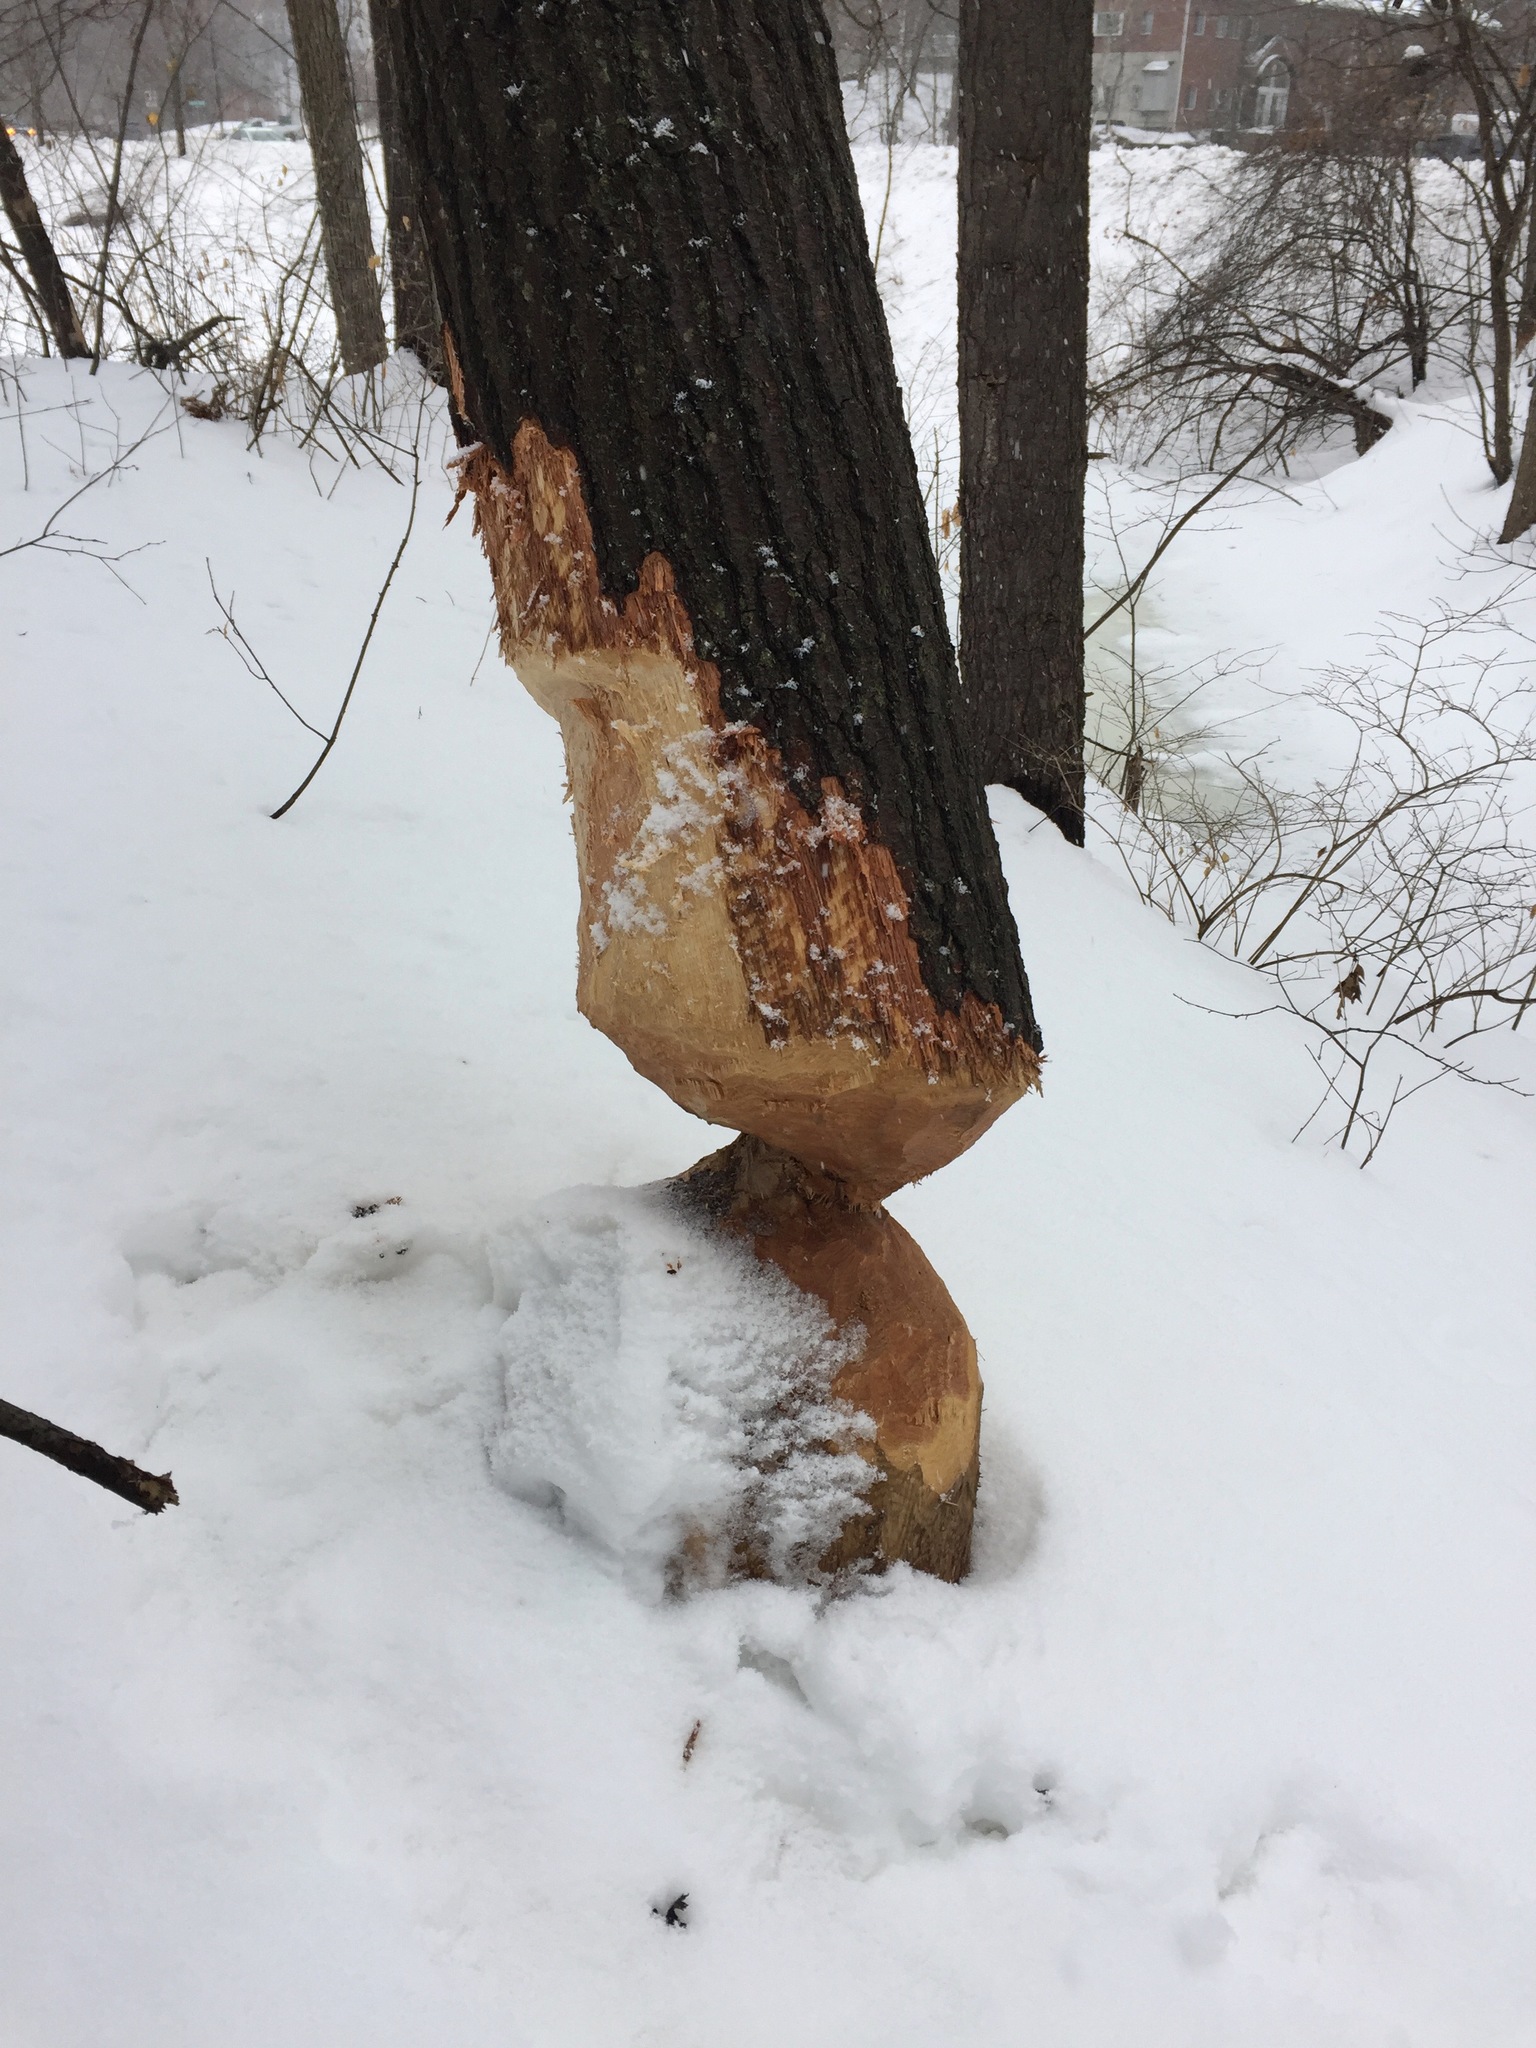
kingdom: Animalia
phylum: Chordata
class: Mammalia
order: Rodentia
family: Castoridae
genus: Castor
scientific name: Castor canadensis
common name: American beaver
